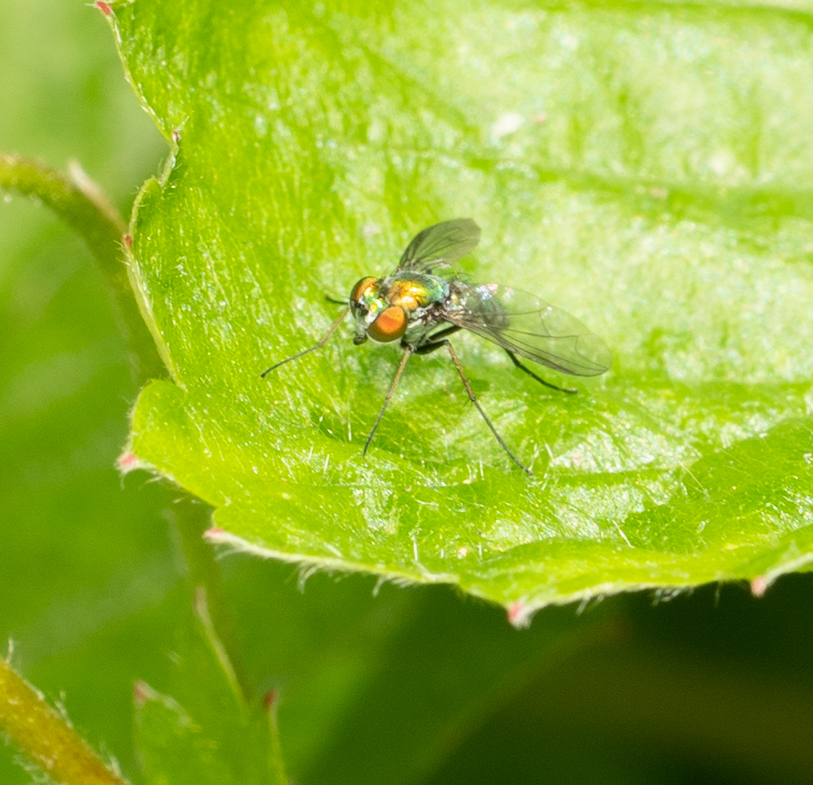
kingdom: Animalia
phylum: Arthropoda
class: Insecta
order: Diptera
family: Dolichopodidae
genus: Condylostylus
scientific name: Condylostylus longicornis
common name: Long-legged fly
